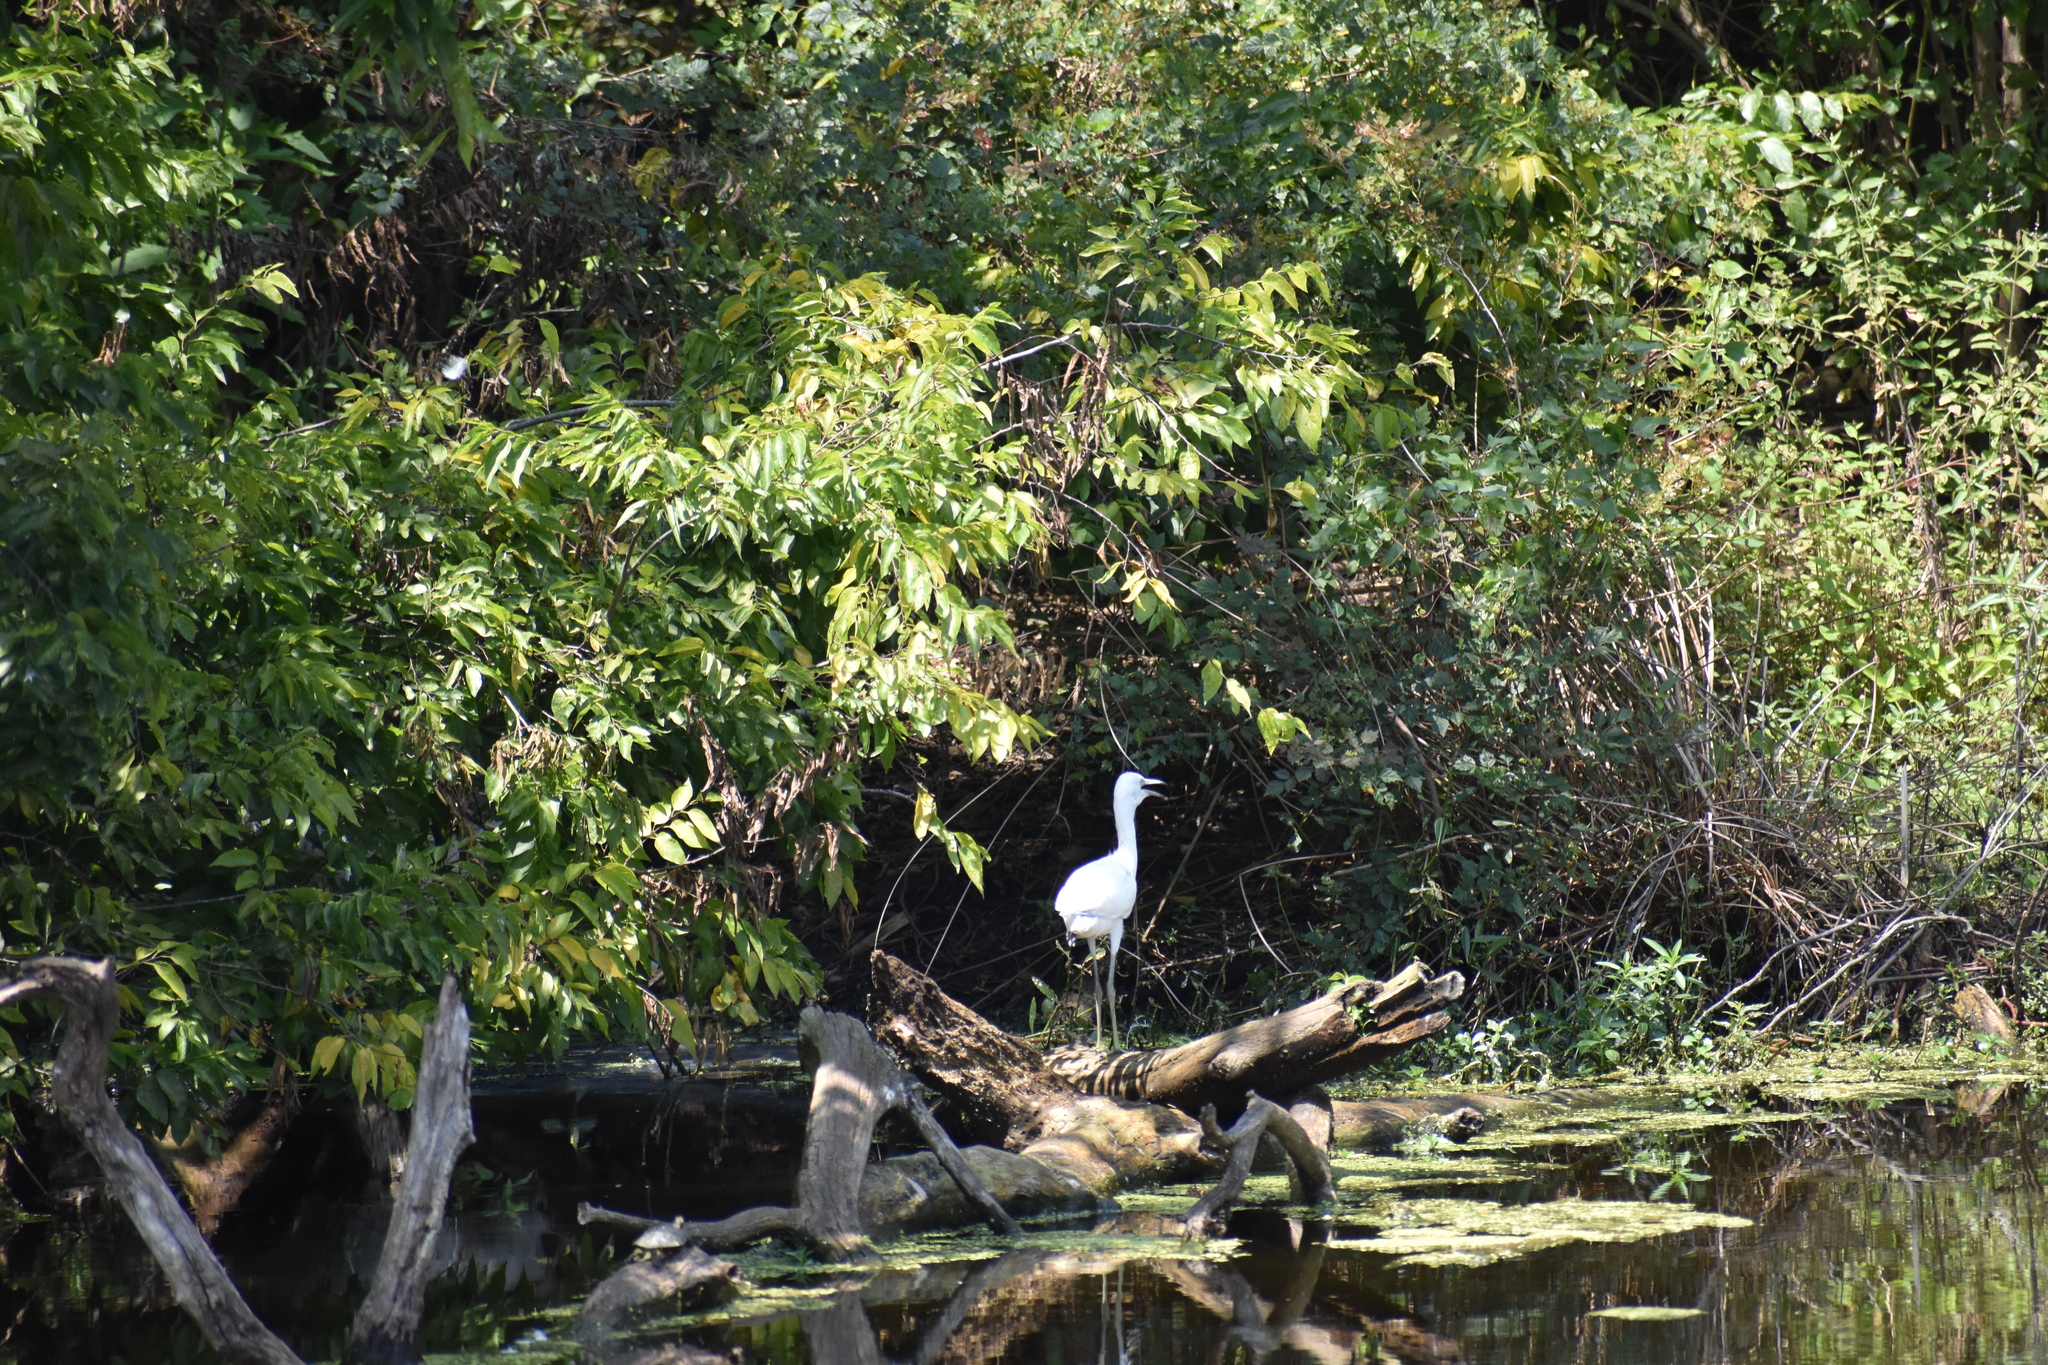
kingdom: Animalia
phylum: Chordata
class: Aves
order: Pelecaniformes
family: Ardeidae
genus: Egretta
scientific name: Egretta caerulea
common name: Little blue heron
